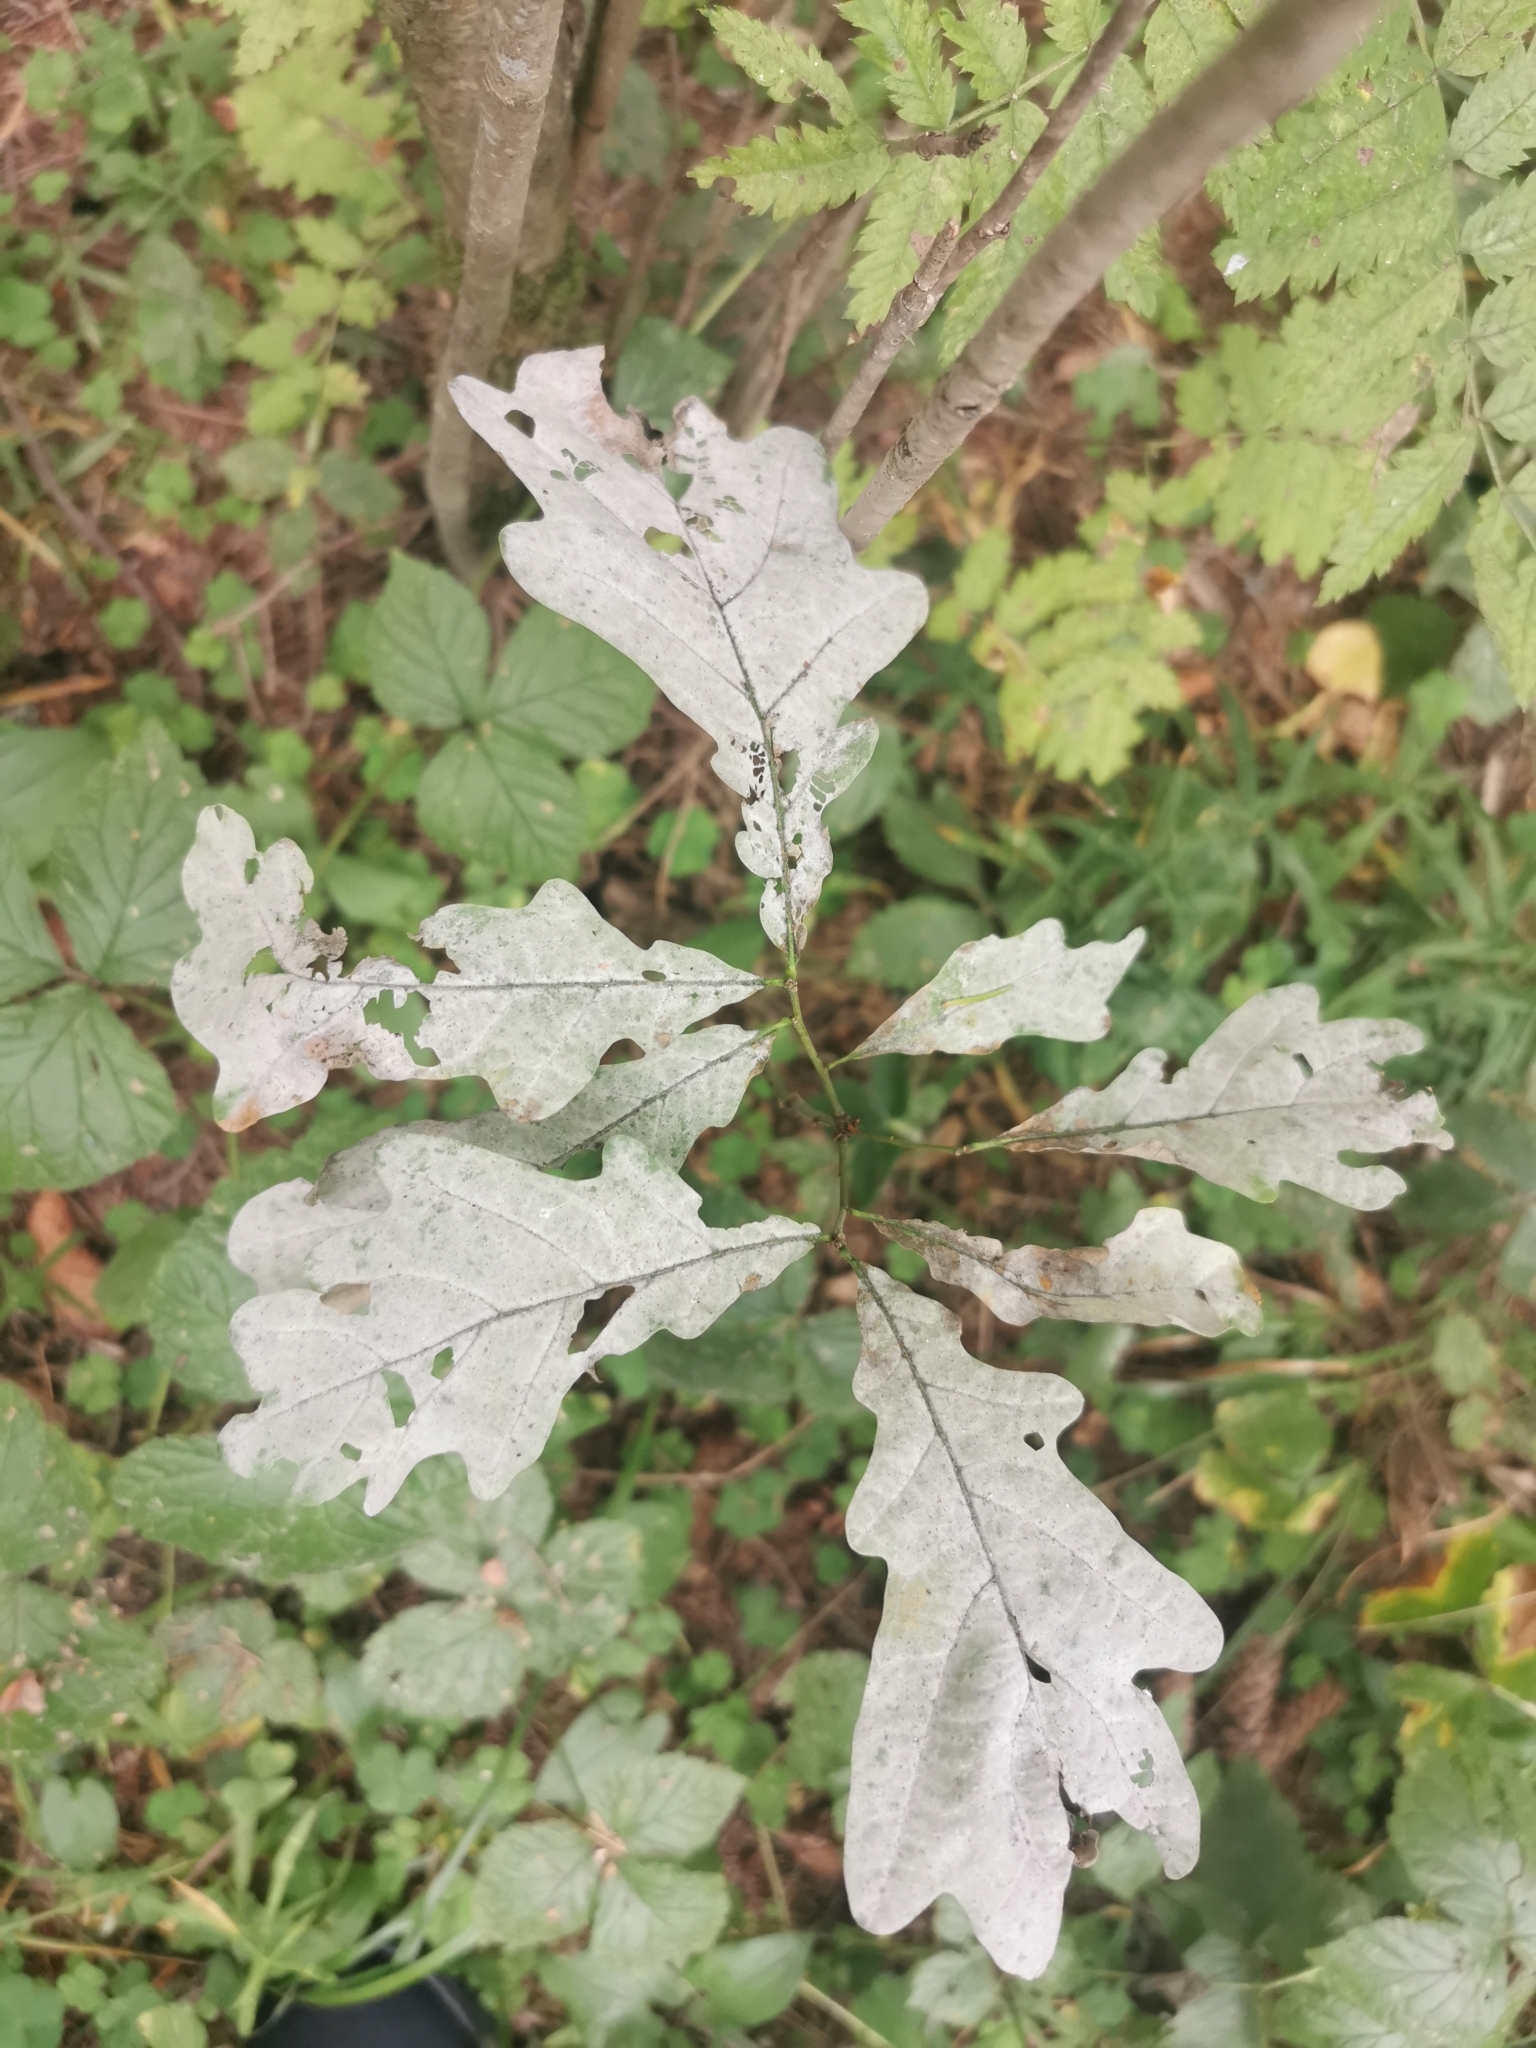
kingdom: Fungi
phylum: Ascomycota
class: Leotiomycetes
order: Helotiales
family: Erysiphaceae
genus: Erysiphe
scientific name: Erysiphe alphitoides
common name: Oak mildew
